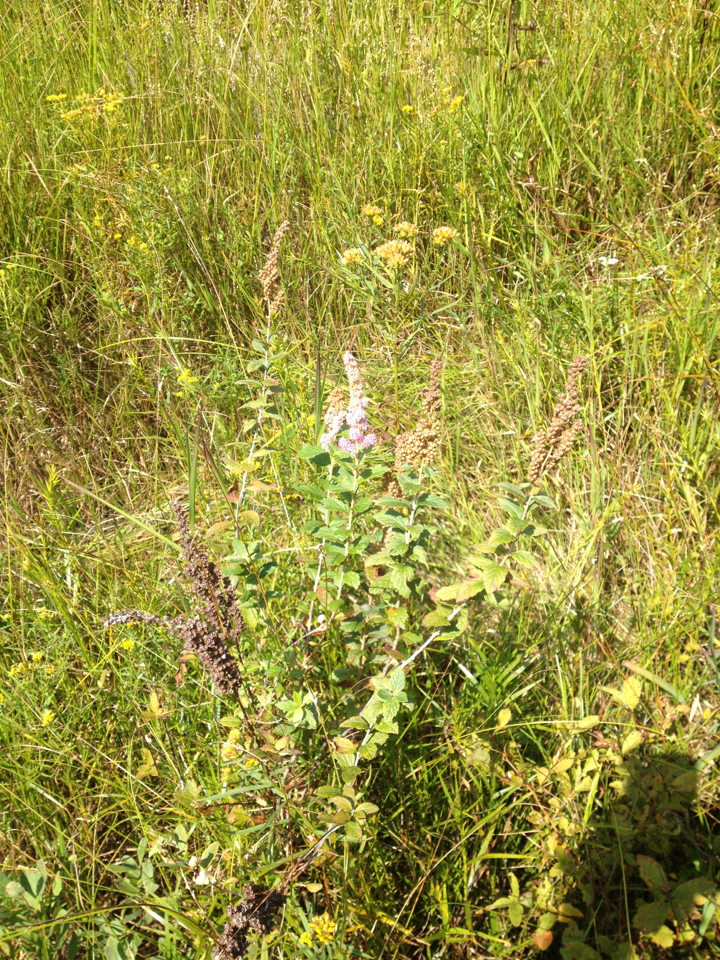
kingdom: Plantae
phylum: Tracheophyta
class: Magnoliopsida
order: Rosales
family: Rosaceae
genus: Spiraea
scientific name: Spiraea tomentosa
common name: Hardhack
